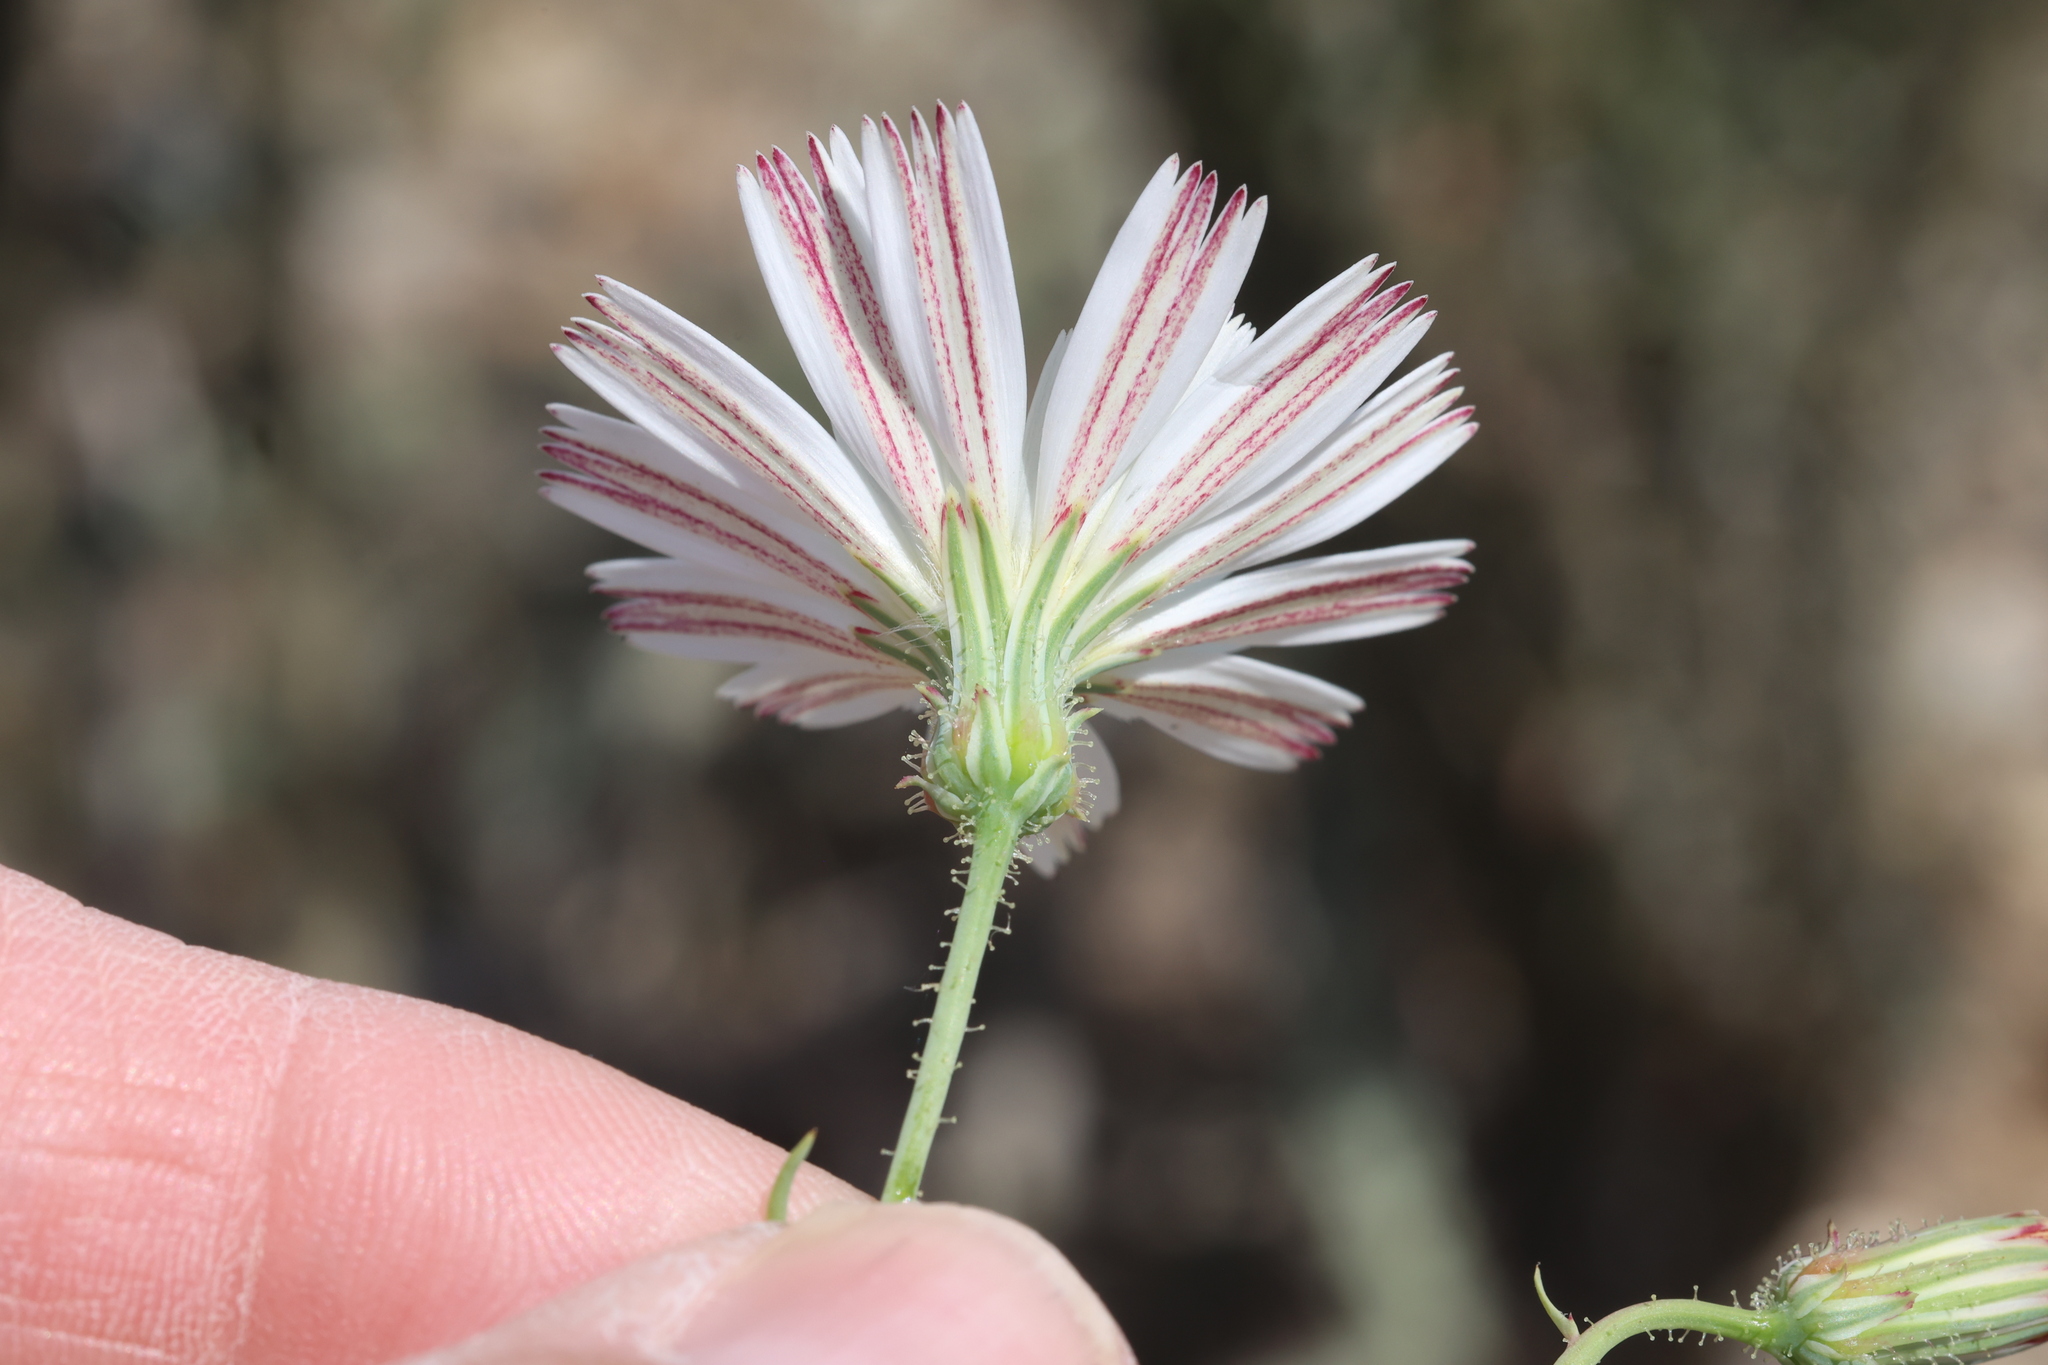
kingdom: Plantae
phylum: Tracheophyta
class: Magnoliopsida
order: Asterales
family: Asteraceae
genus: Calycoseris
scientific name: Calycoseris wrightii
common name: White tackstem
